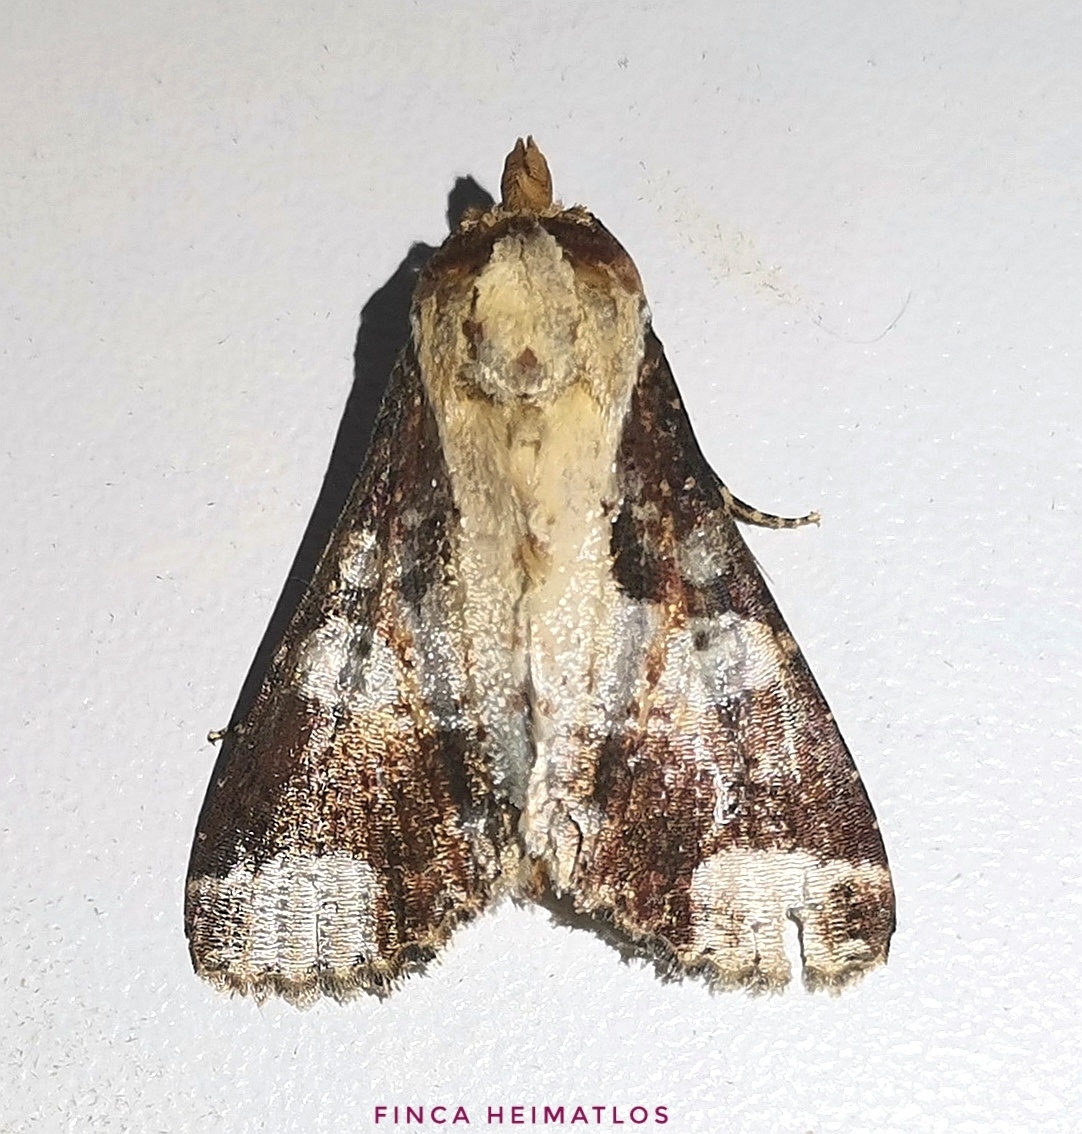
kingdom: Animalia
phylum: Arthropoda
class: Insecta
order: Lepidoptera
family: Noctuidae
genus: Condica
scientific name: Condica imitata
